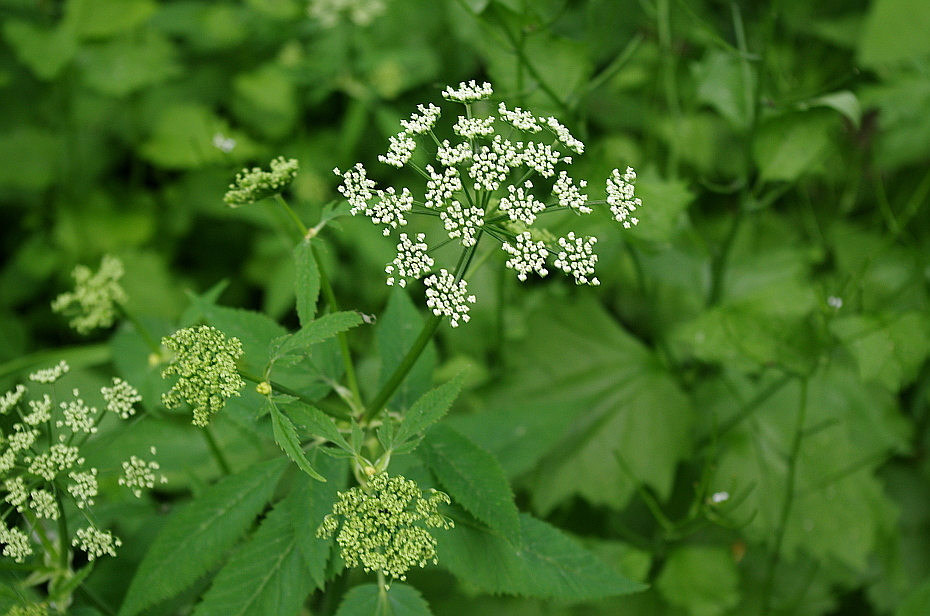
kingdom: Plantae
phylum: Tracheophyta
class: Magnoliopsida
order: Apiales
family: Apiaceae
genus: Aegopodium
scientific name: Aegopodium podagraria
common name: Ground-elder
